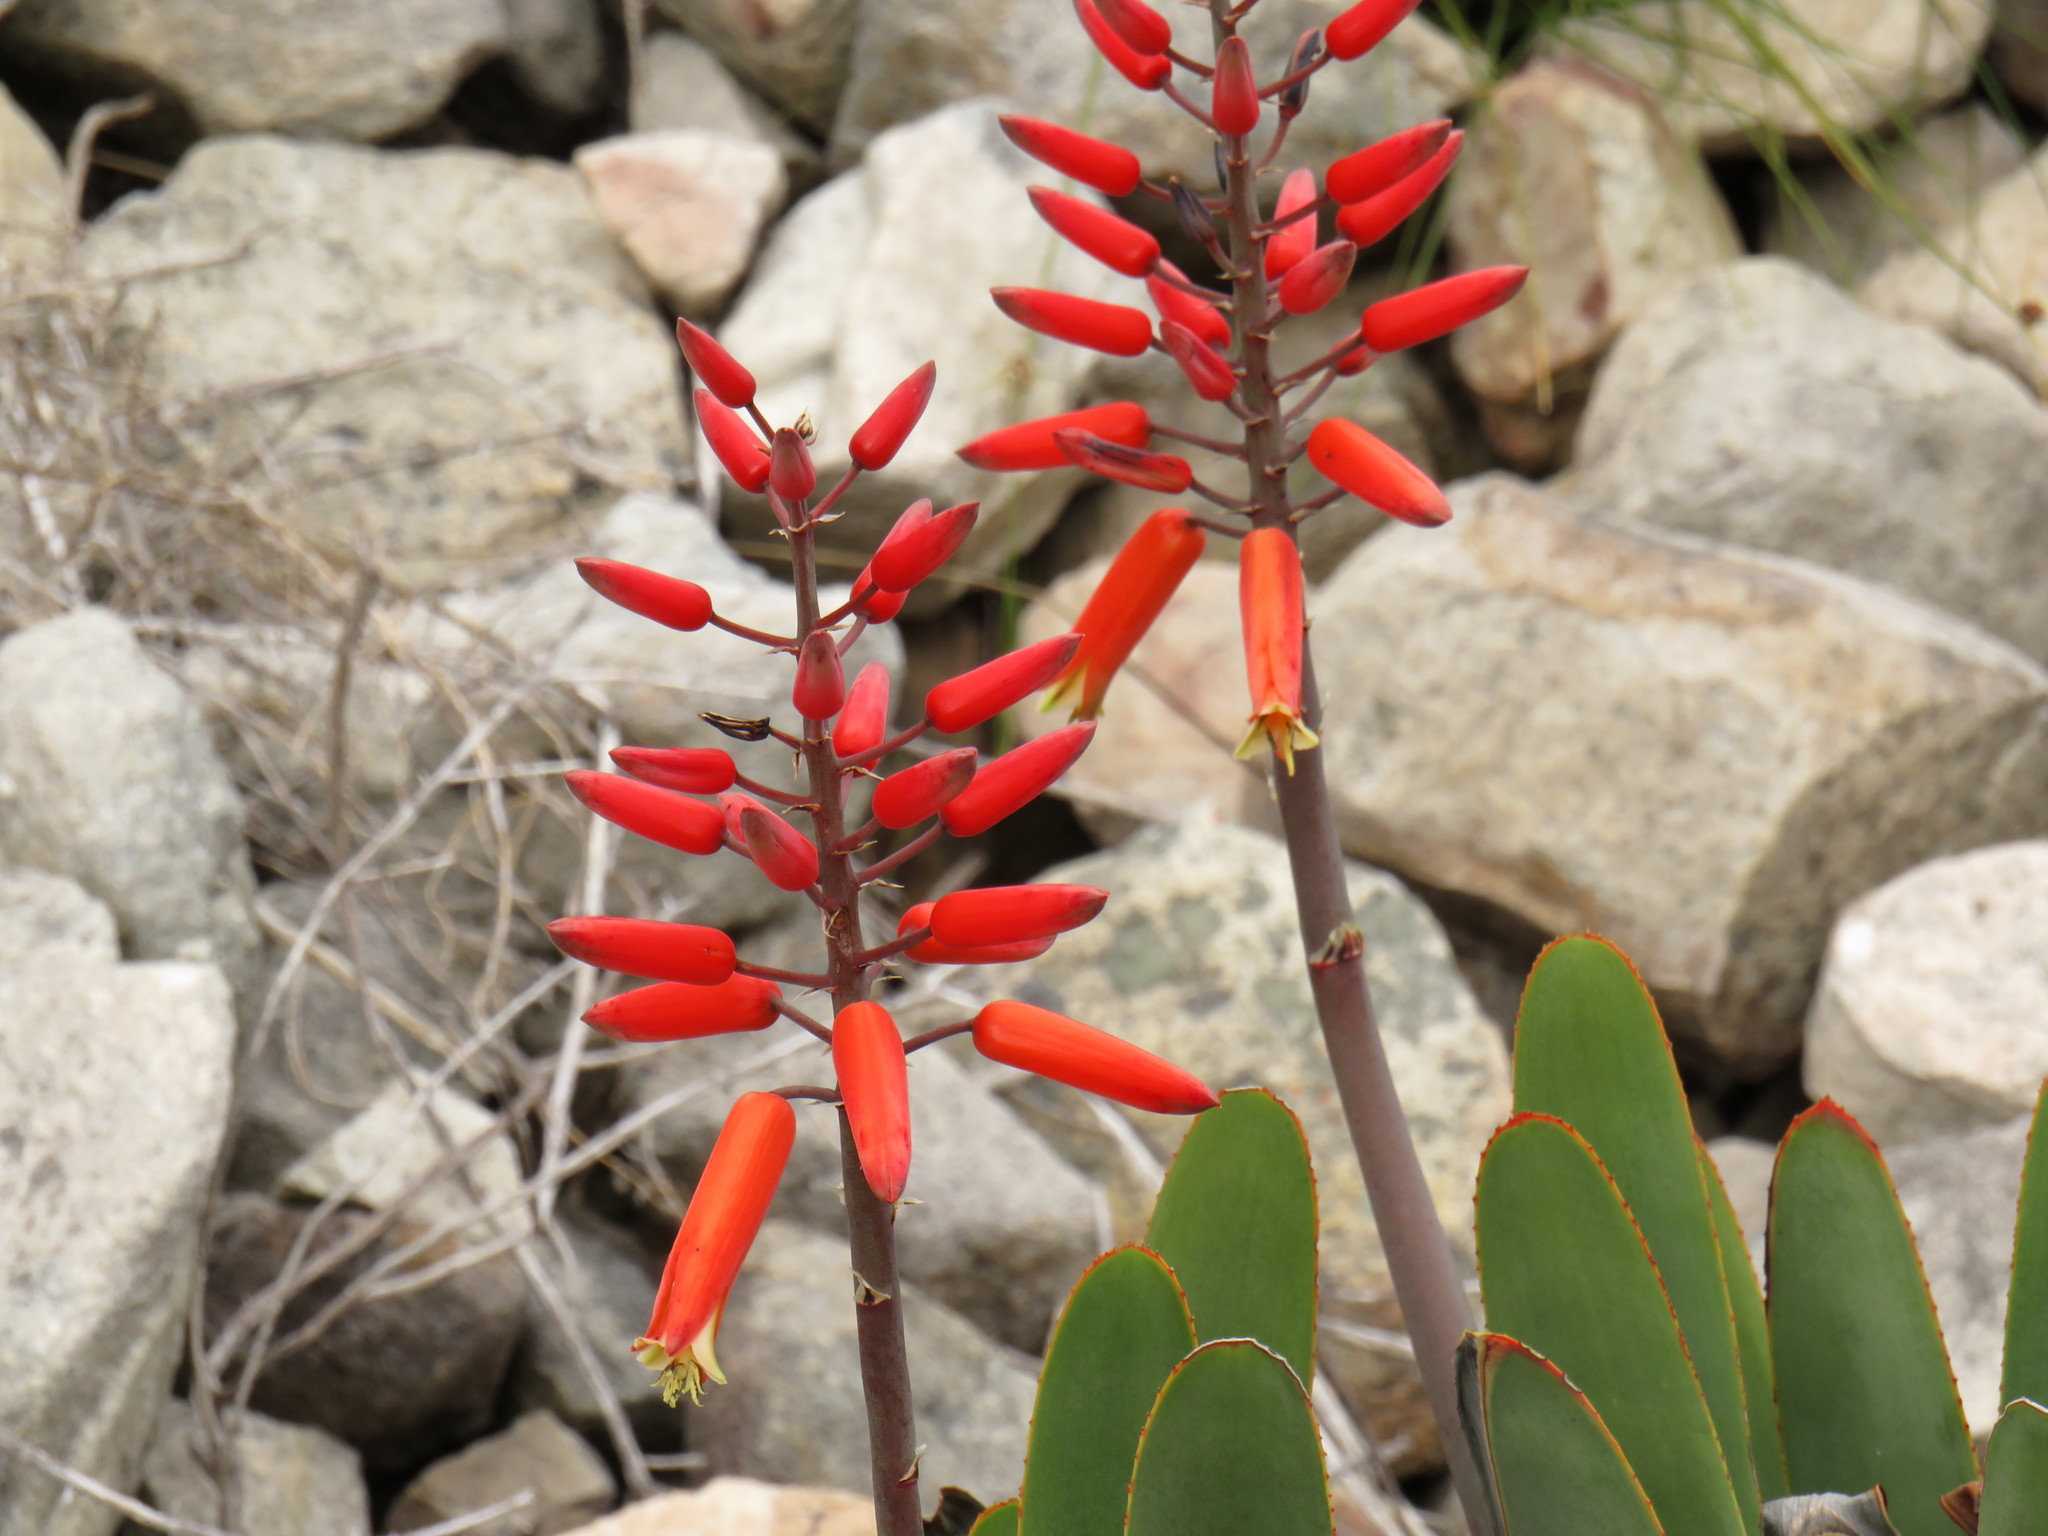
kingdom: Plantae
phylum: Tracheophyta
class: Liliopsida
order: Asparagales
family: Asphodelaceae
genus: Kumara
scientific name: Kumara plicatilis
